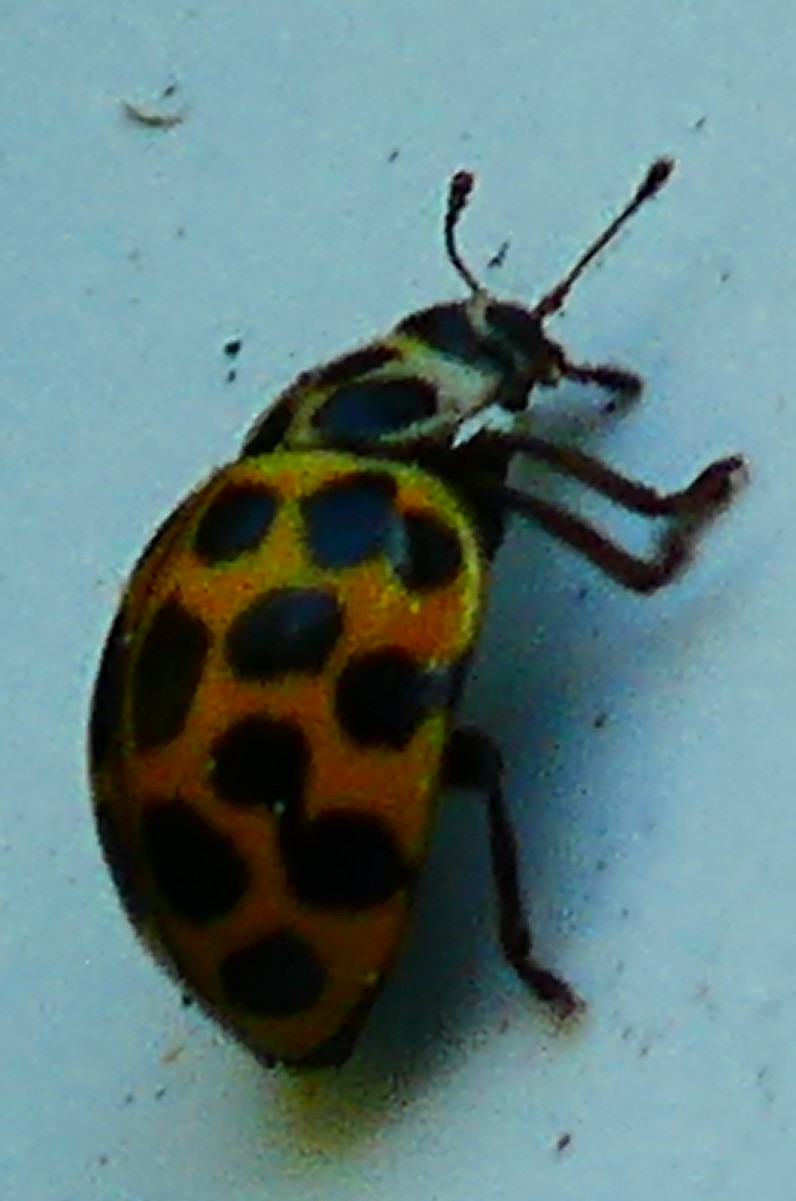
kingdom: Animalia
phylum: Arthropoda
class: Insecta
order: Coleoptera
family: Coccinellidae
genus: Psyllobora
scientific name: Psyllobora vigintiduopunctata
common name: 22-spot ladybird
